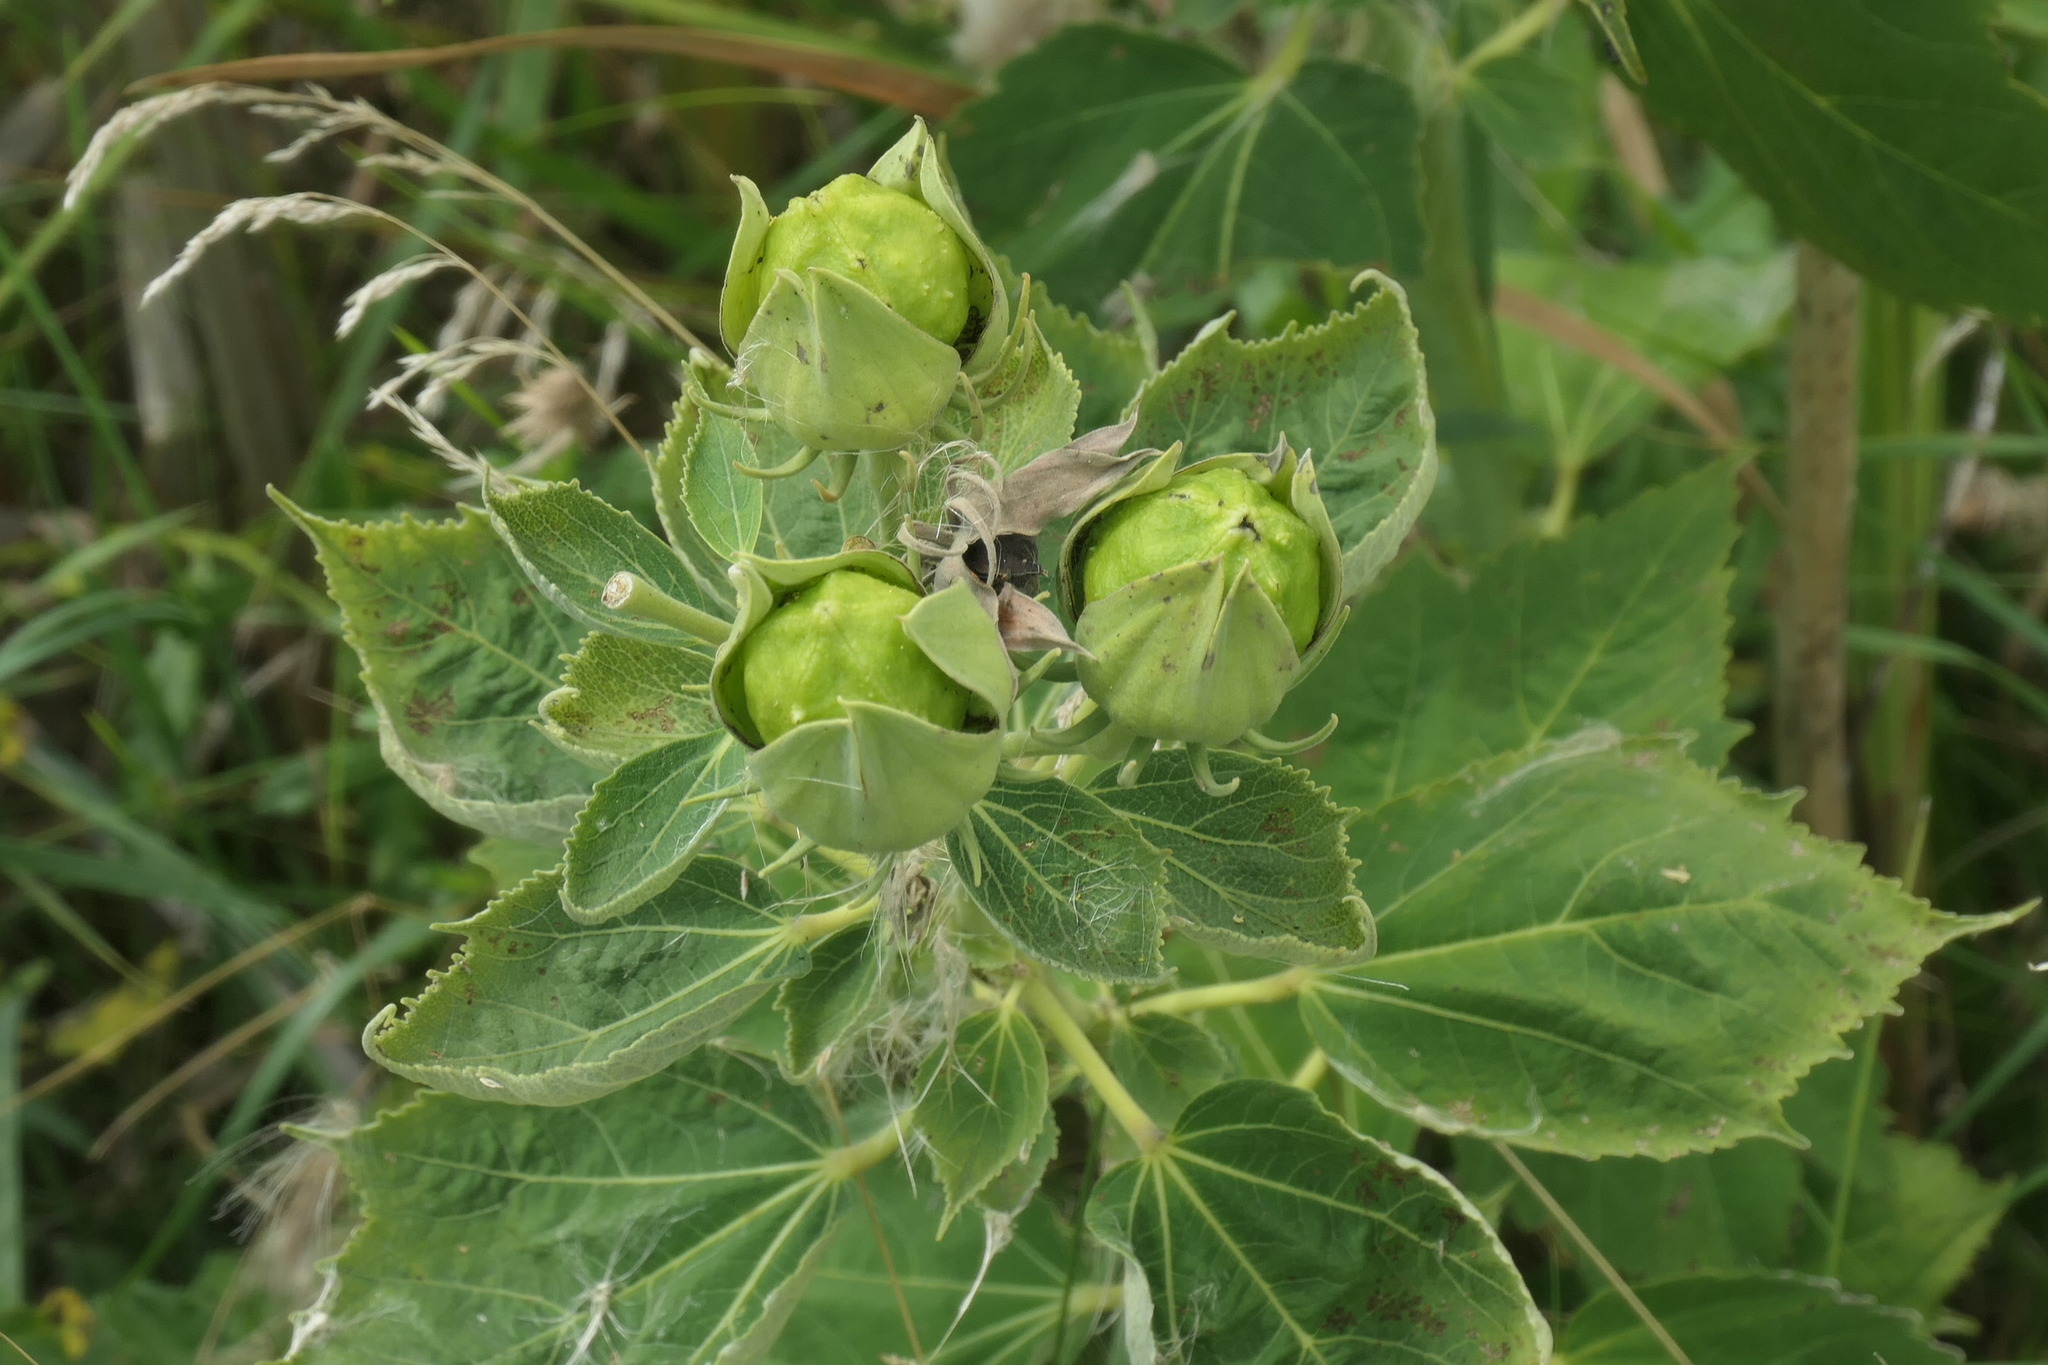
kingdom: Plantae
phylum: Tracheophyta
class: Magnoliopsida
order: Malvales
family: Malvaceae
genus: Hibiscus
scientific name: Hibiscus moscheutos
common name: Common rose-mallow
